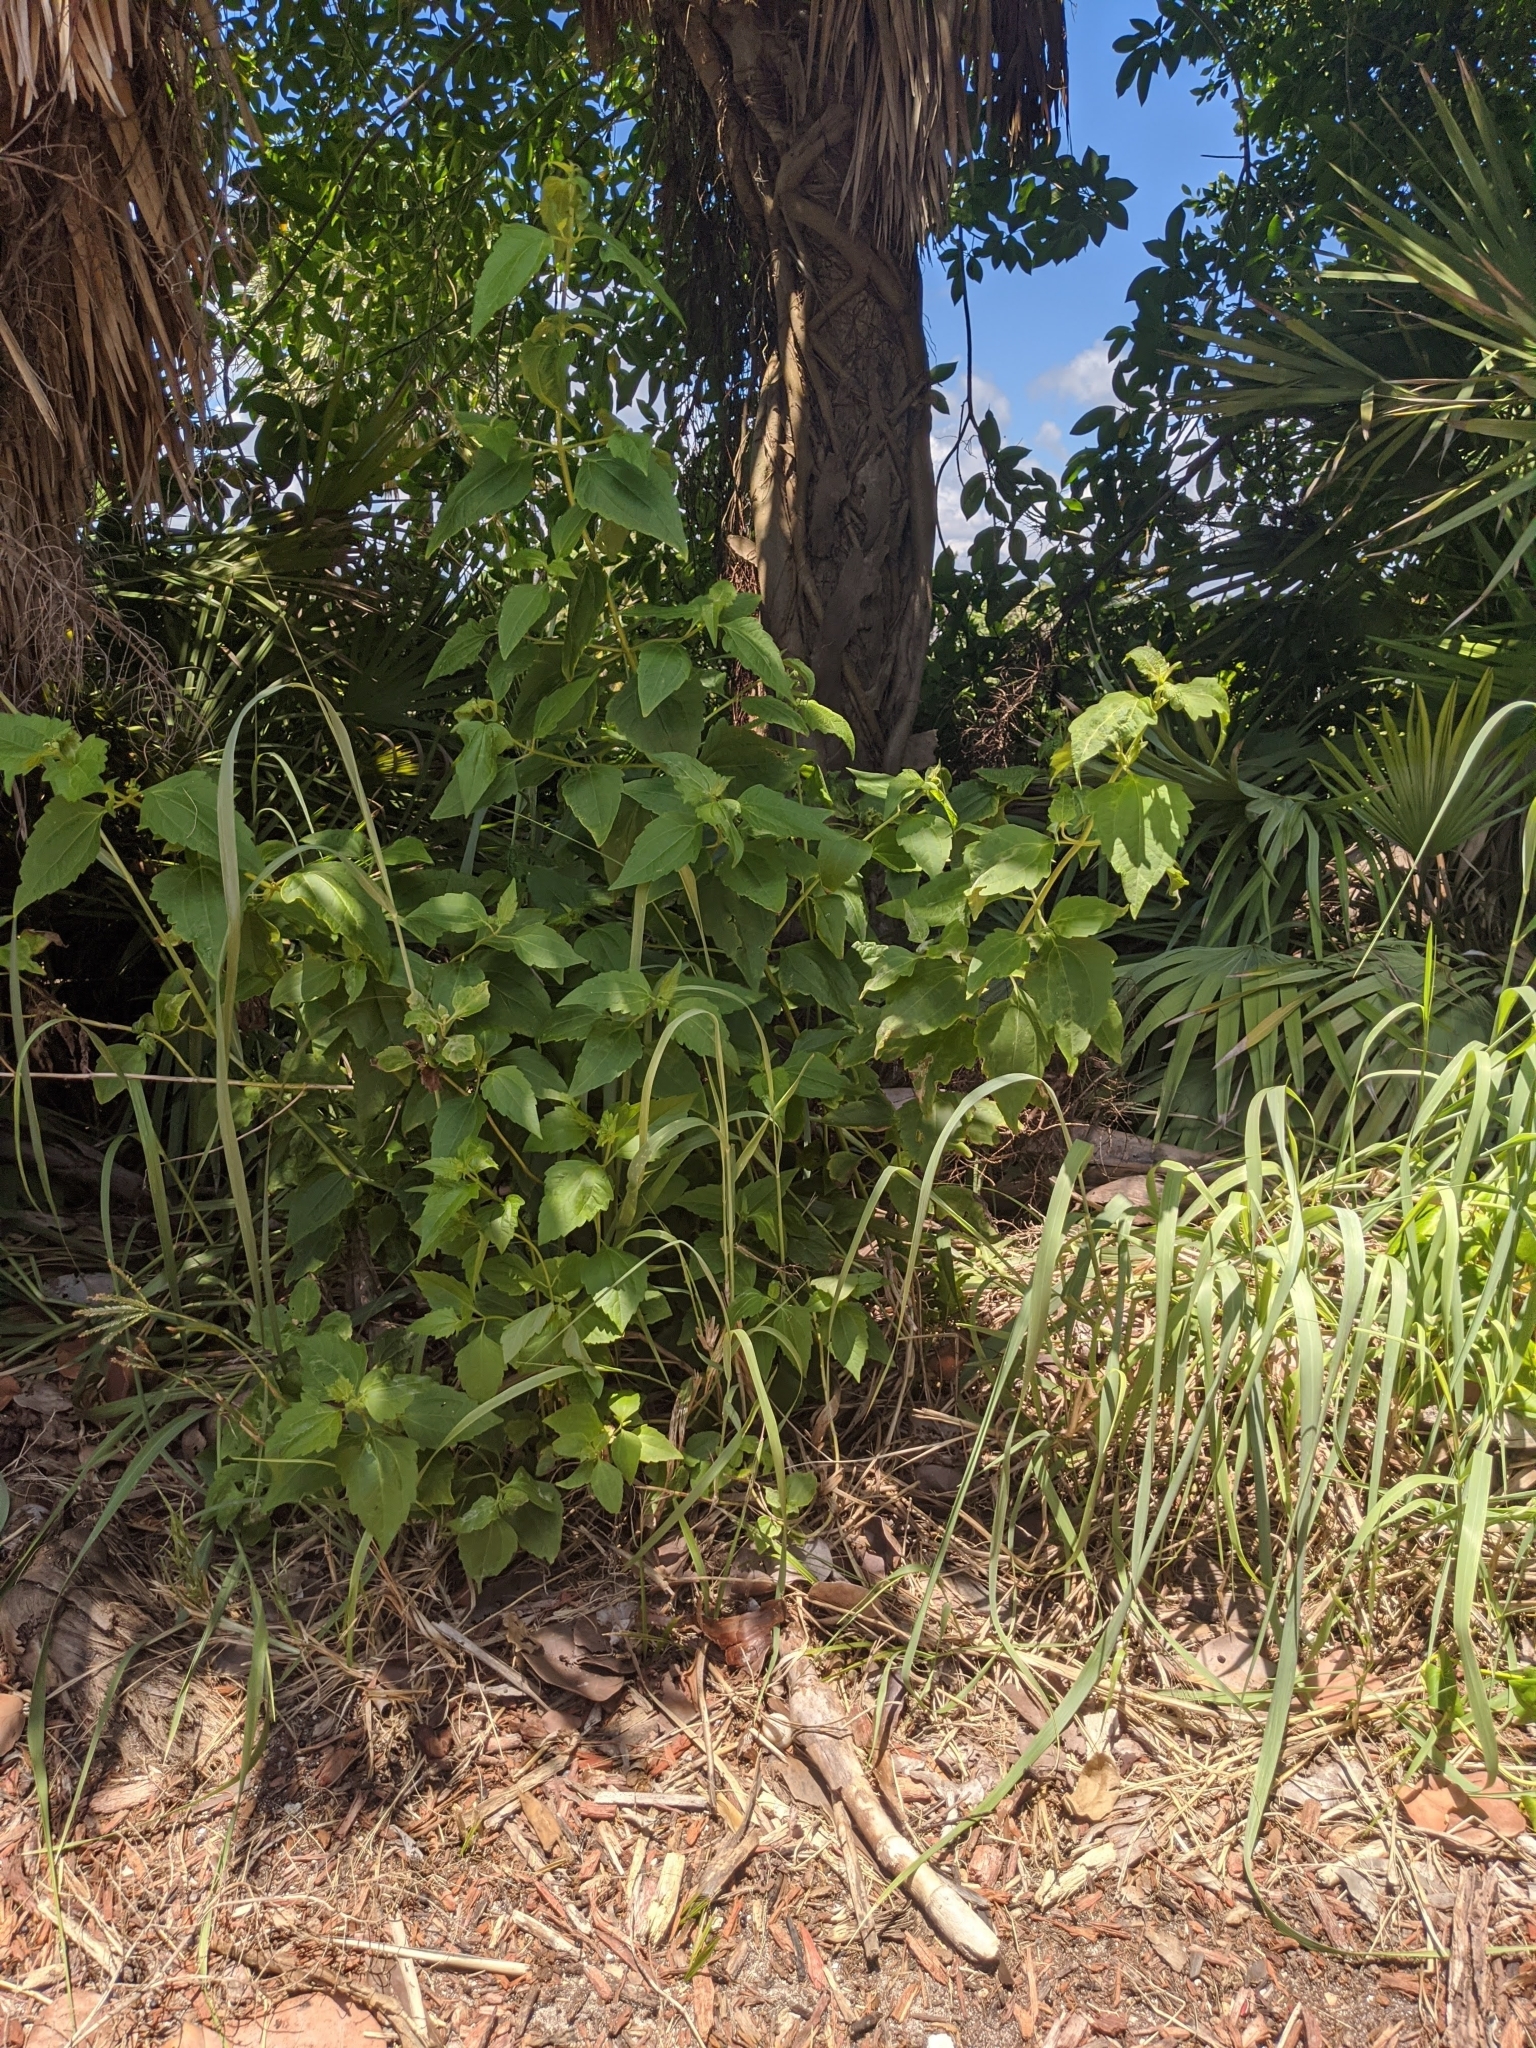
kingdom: Plantae
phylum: Tracheophyta
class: Magnoliopsida
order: Asterales
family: Asteraceae
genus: Chromolaena
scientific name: Chromolaena odorata
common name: Siamweed
